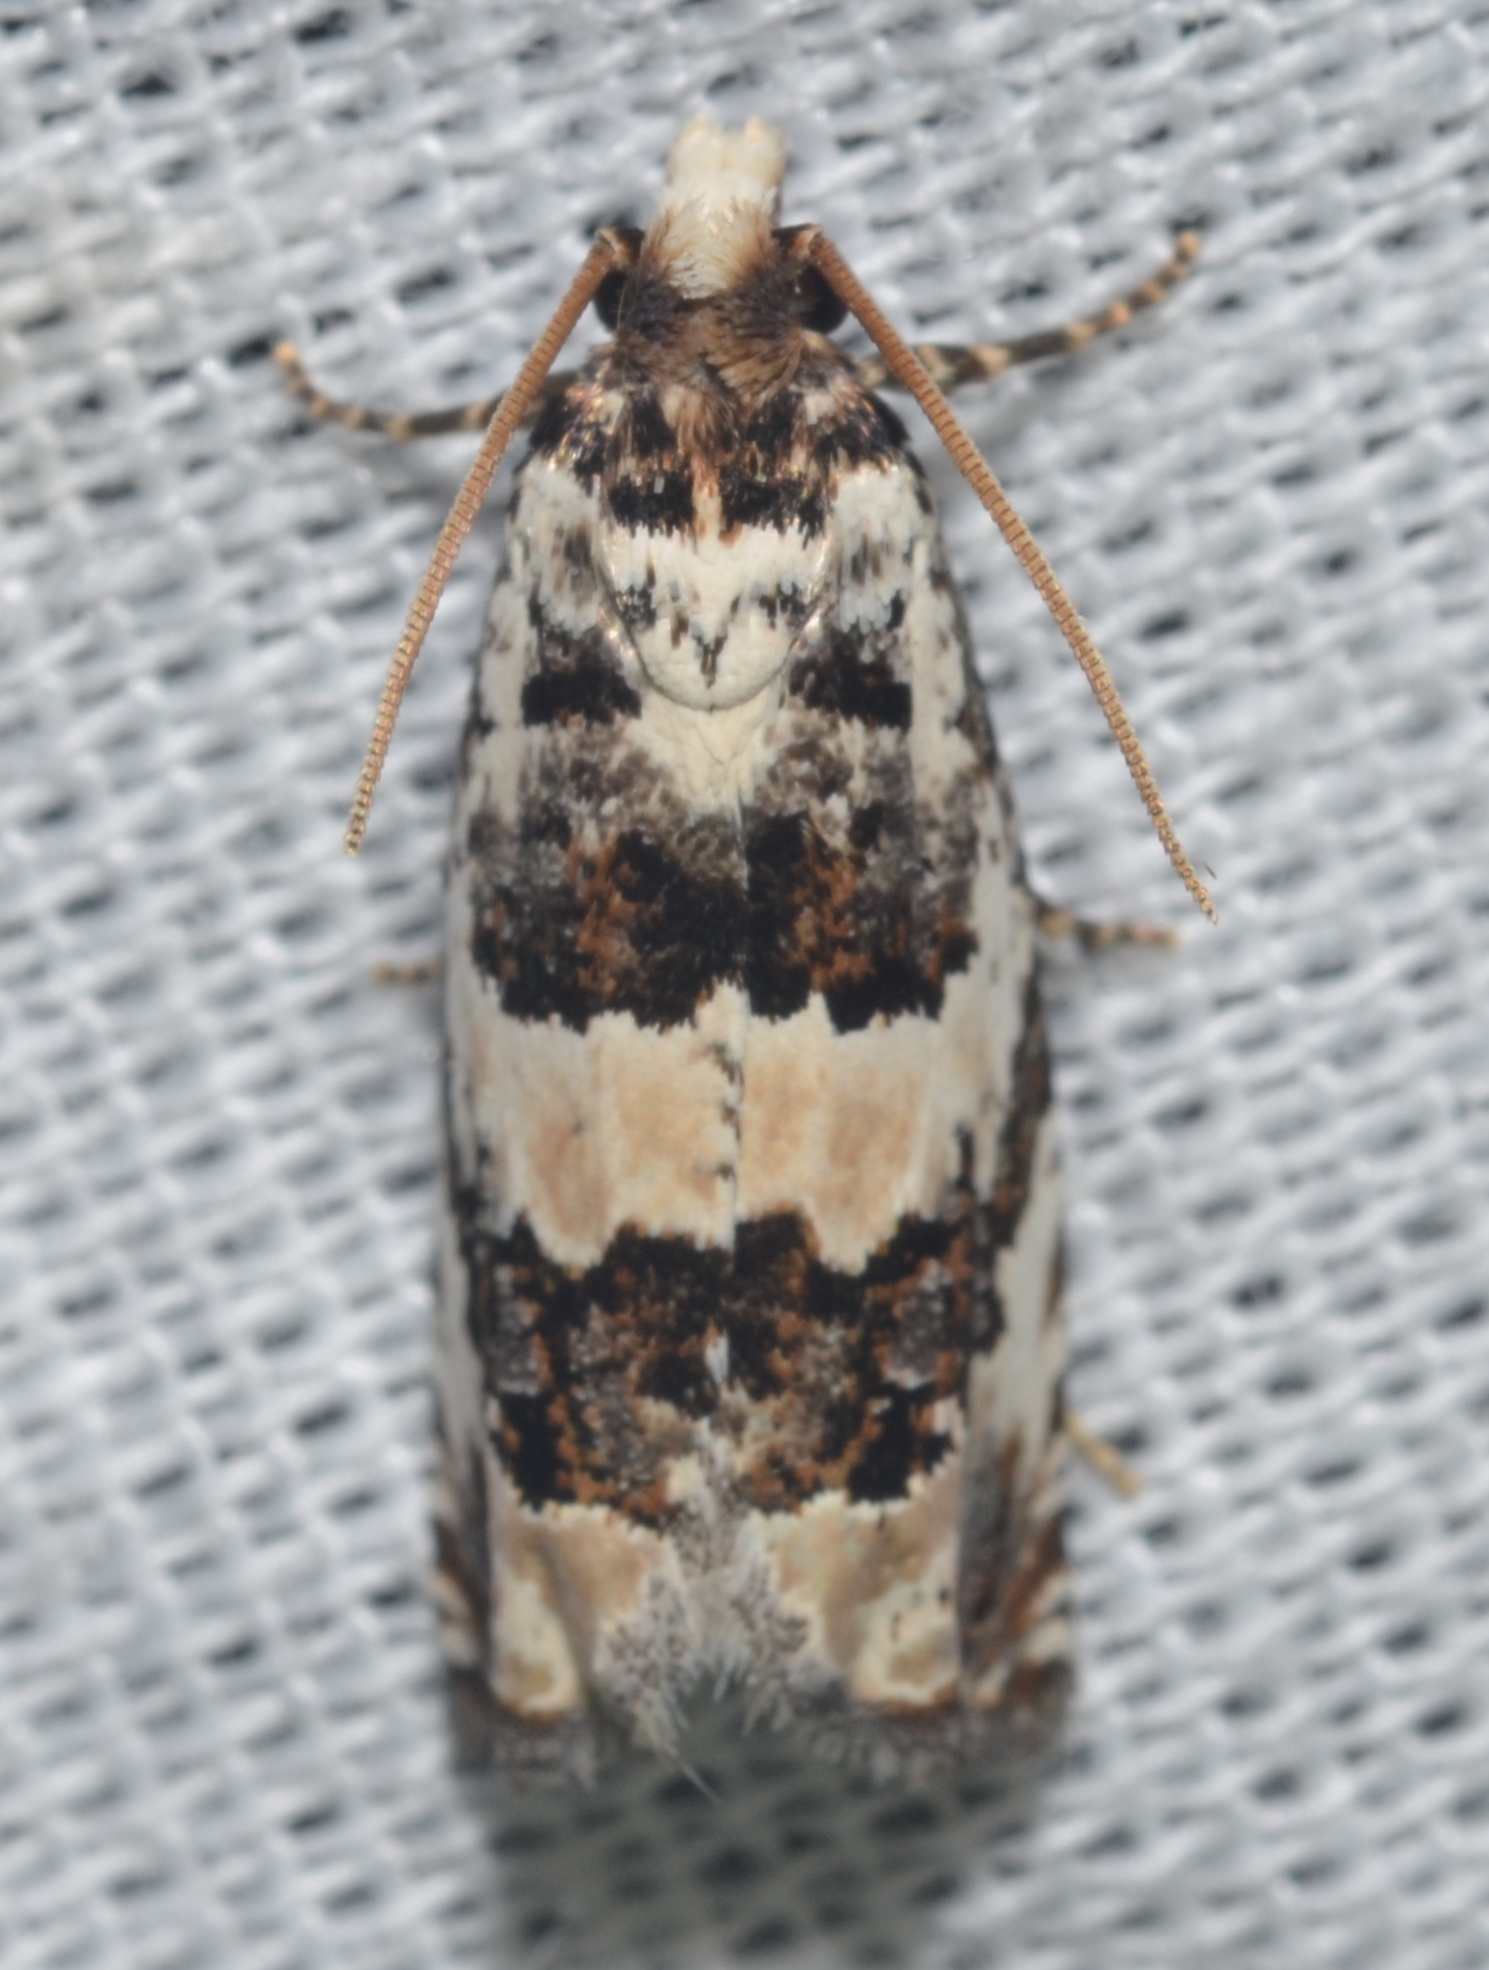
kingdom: Animalia
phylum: Arthropoda
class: Insecta
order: Lepidoptera
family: Tortricidae
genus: Pelochrista
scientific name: Pelochrista matutina
